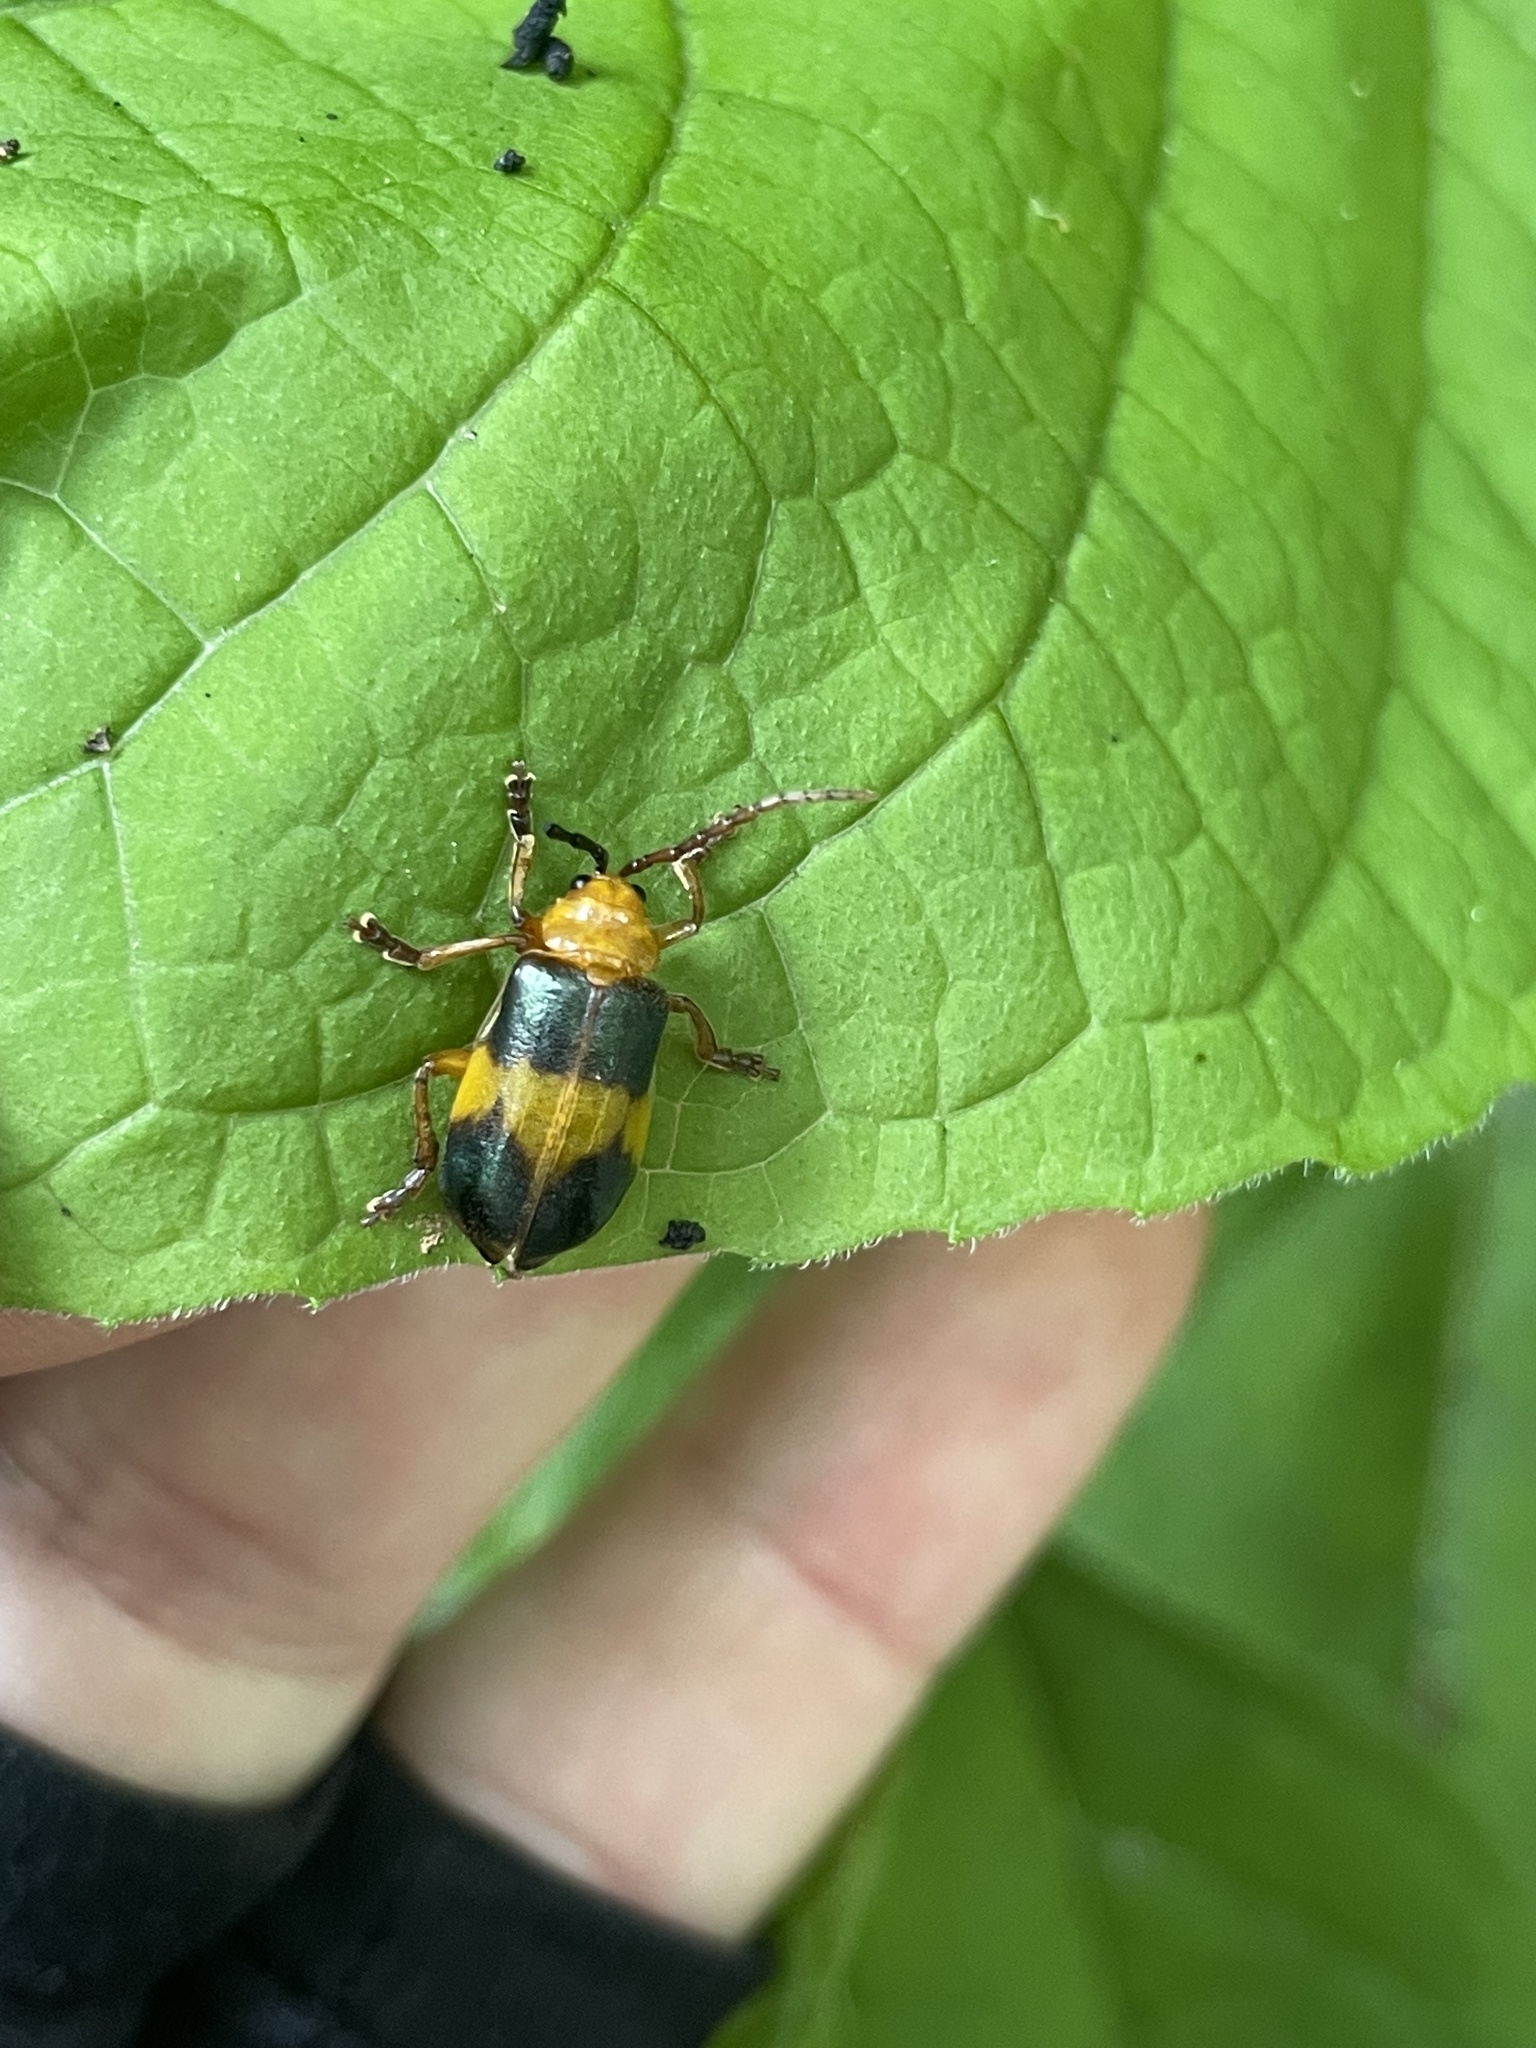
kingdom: Animalia
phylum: Arthropoda
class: Insecta
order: Coleoptera
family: Chrysomelidae
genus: Monocesta
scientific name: Monocesta coryli
